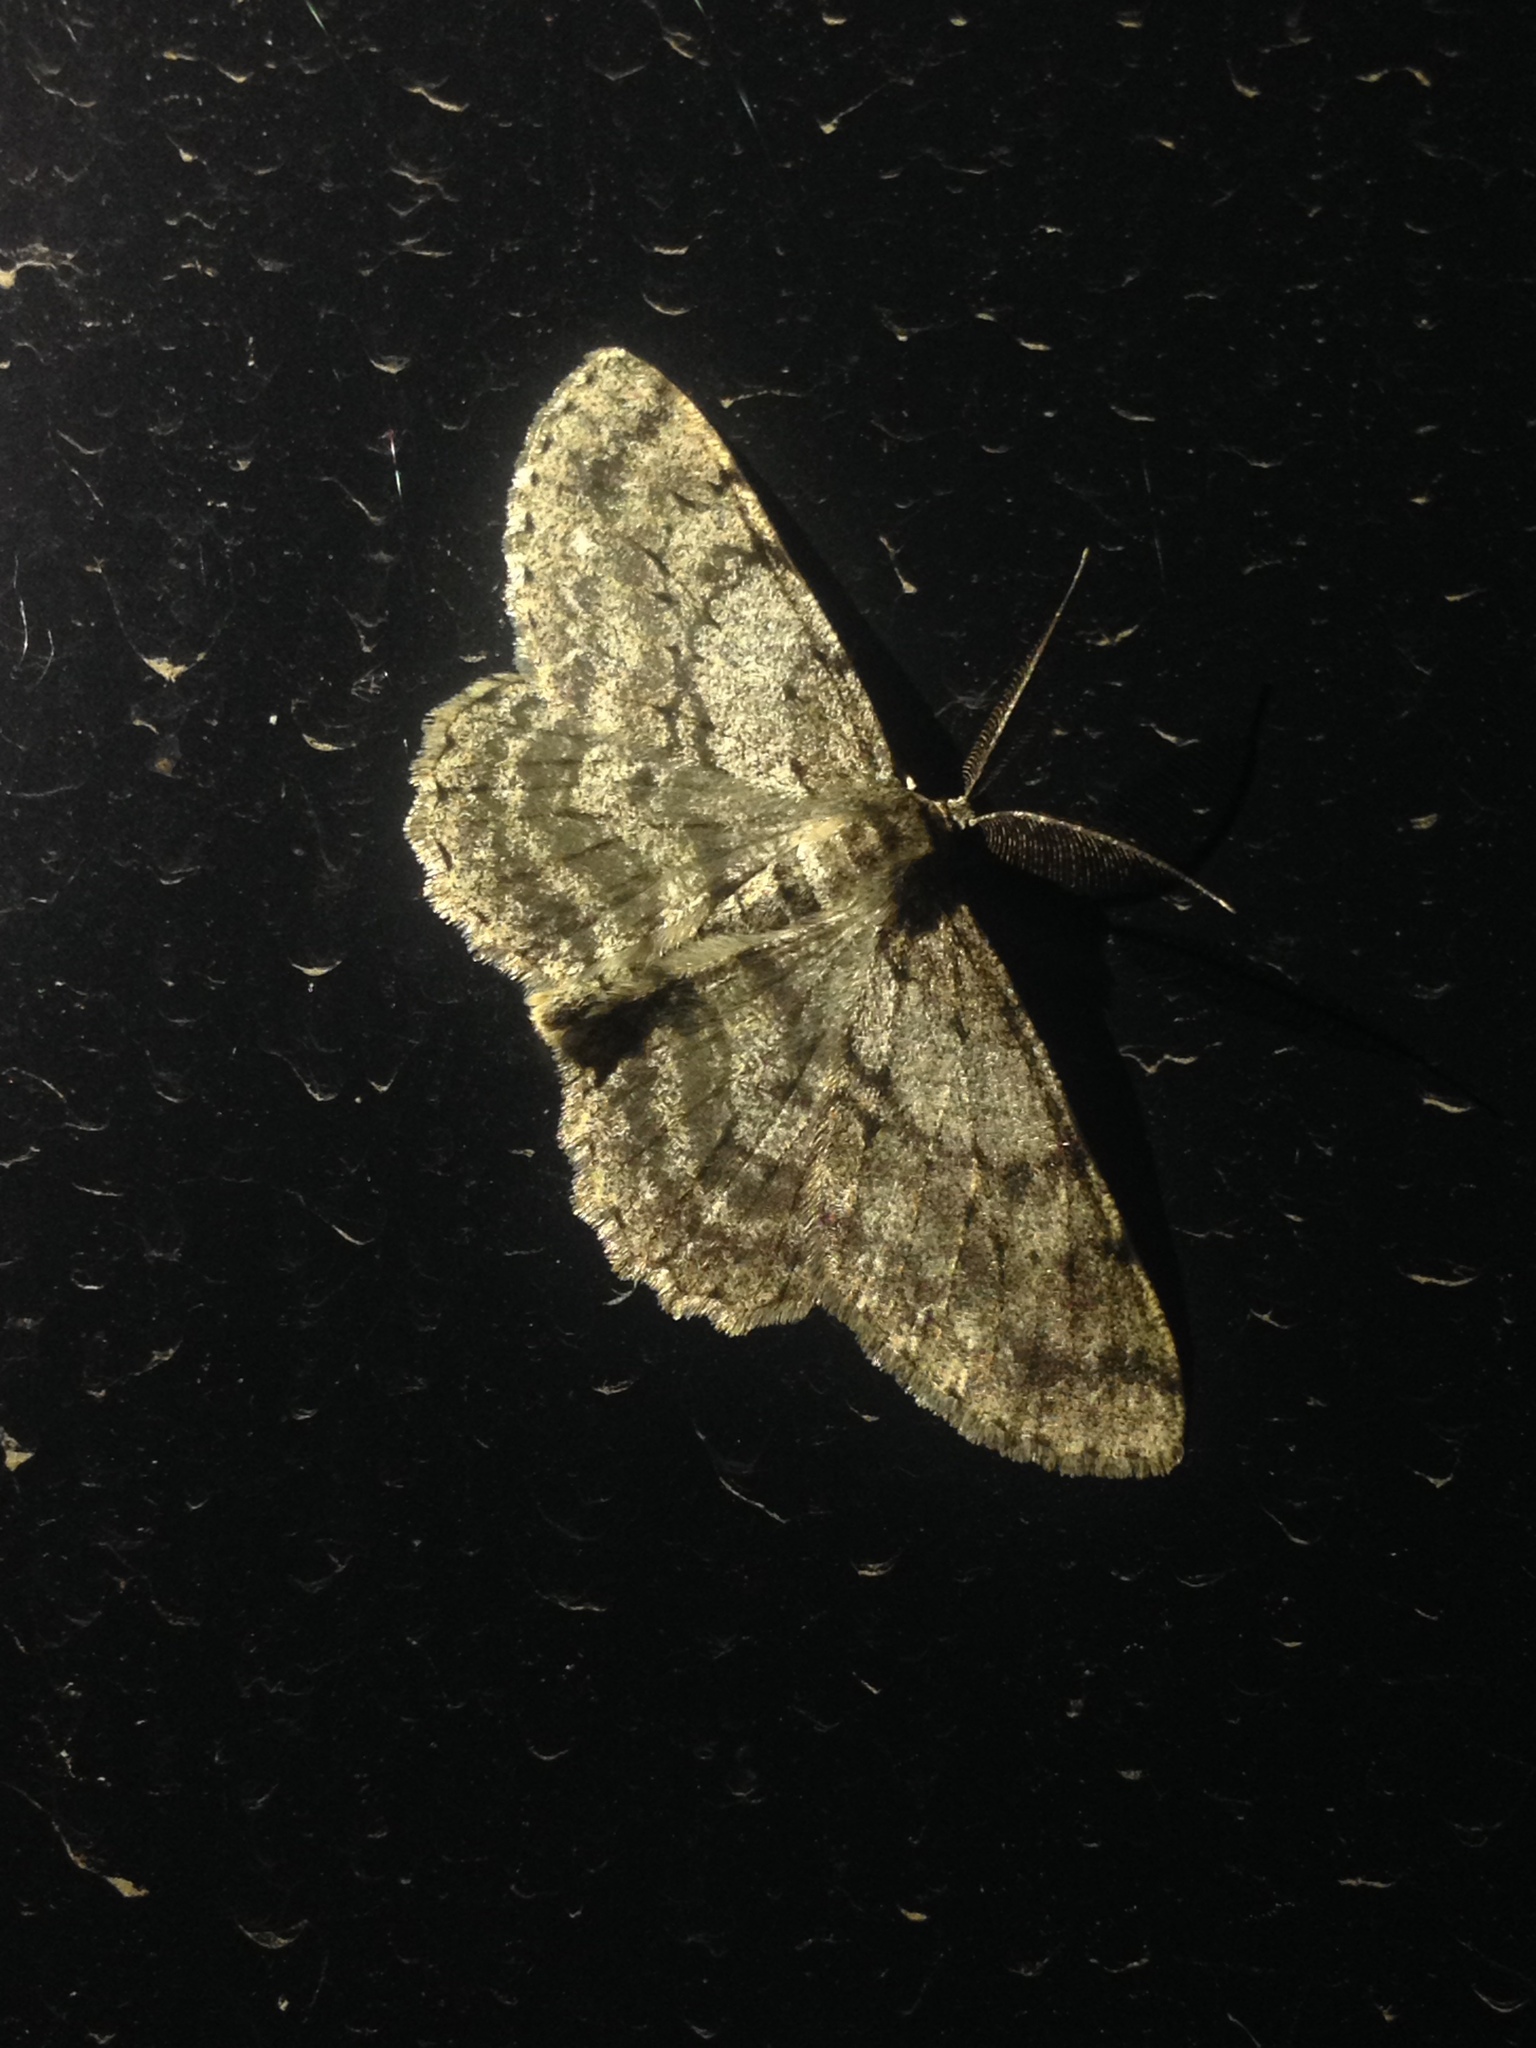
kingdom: Animalia
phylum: Arthropoda
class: Insecta
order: Lepidoptera
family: Geometridae
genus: Hypomecis
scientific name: Hypomecis punctinalis
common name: Pale oak beauty
